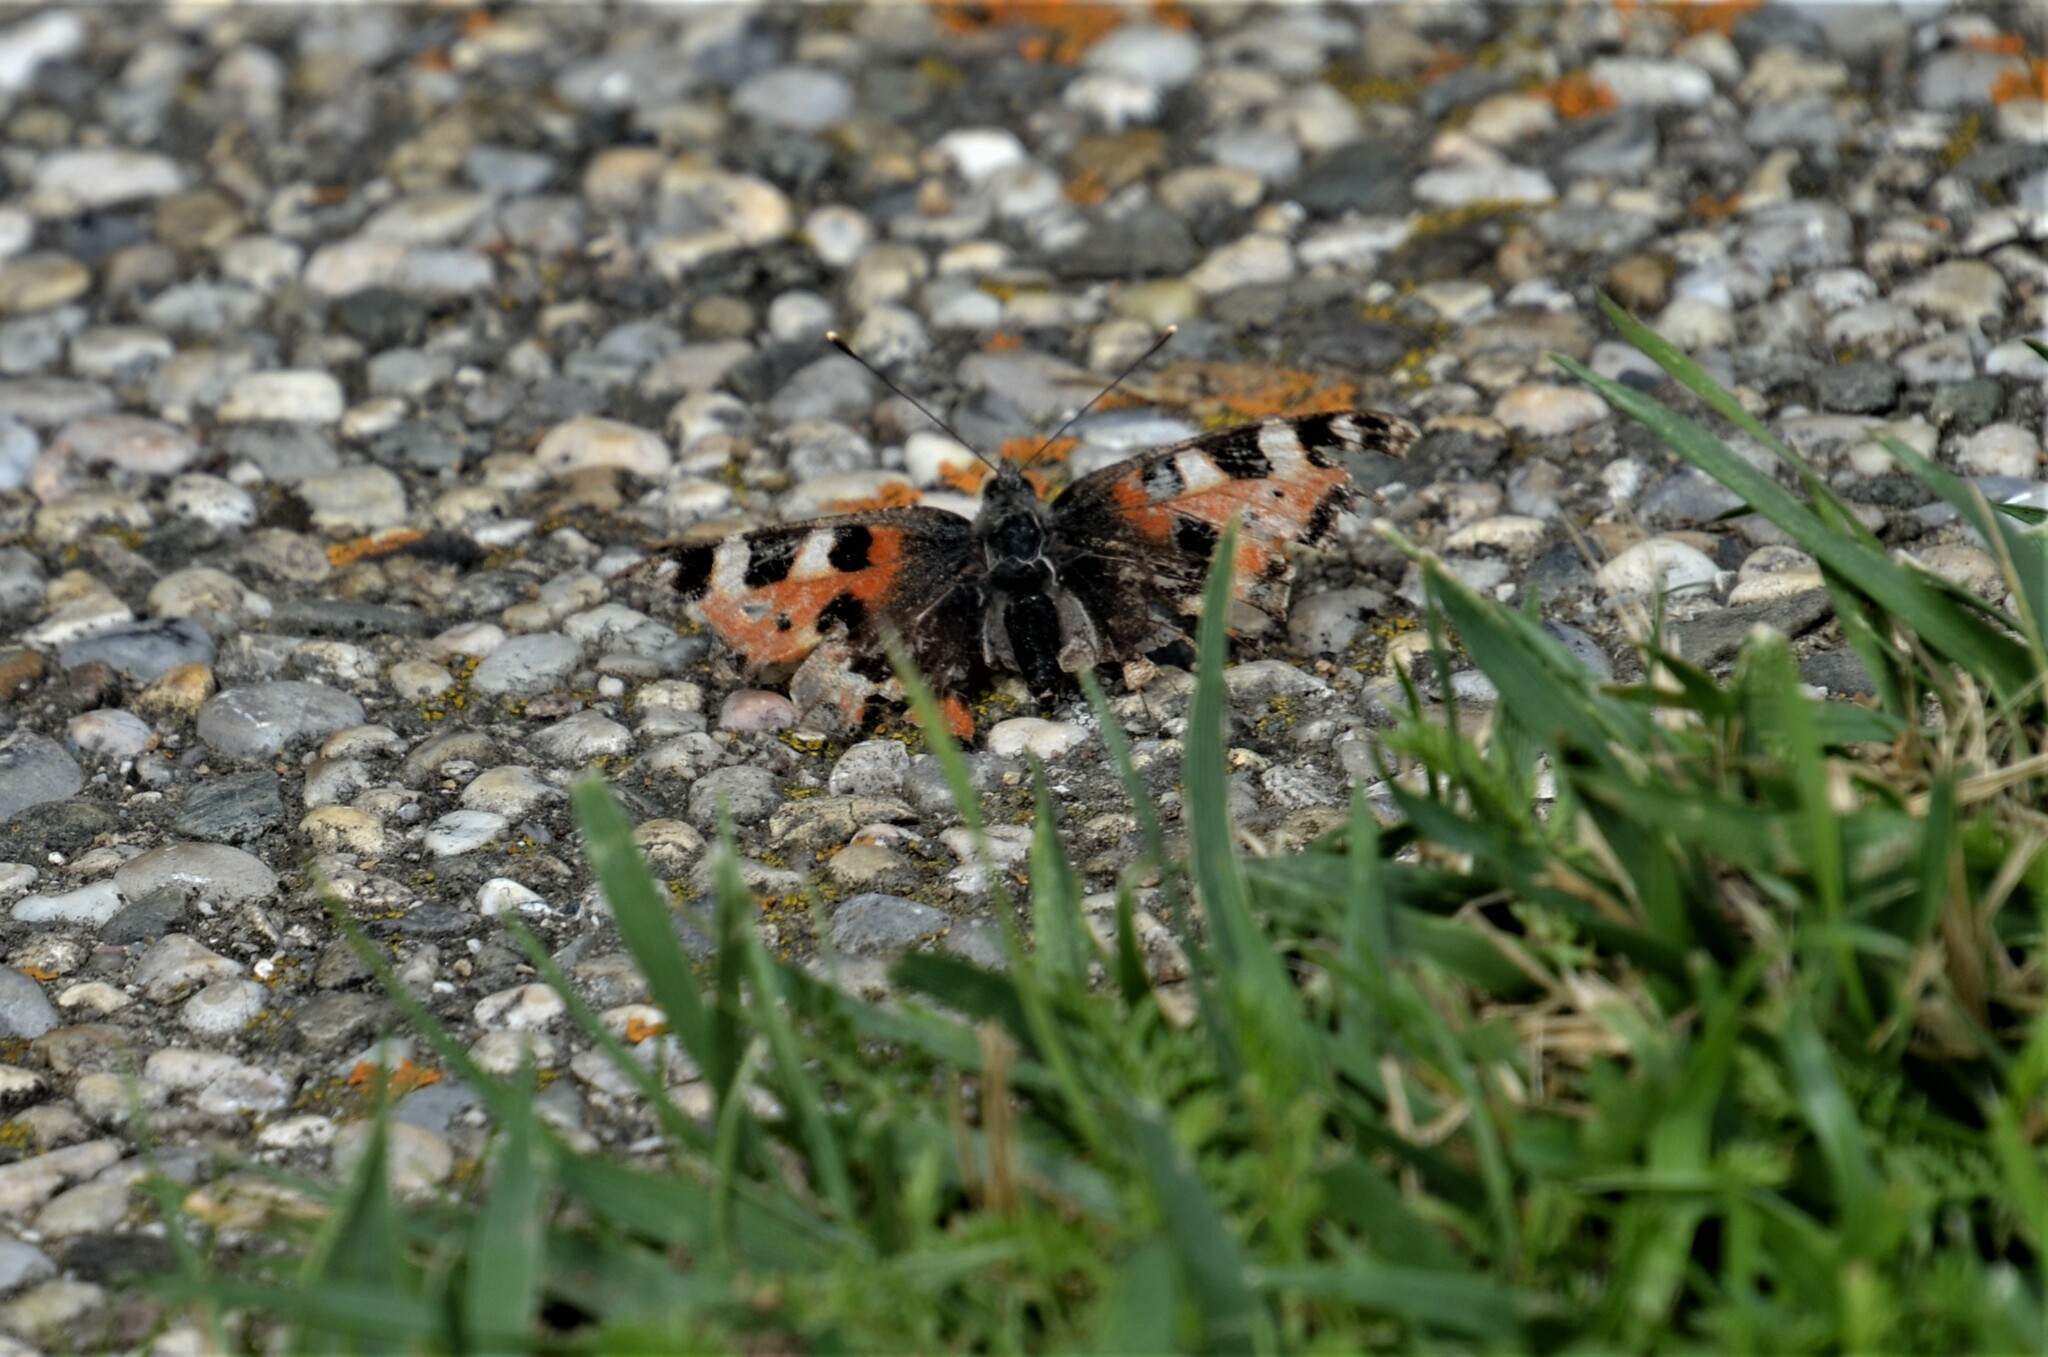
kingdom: Animalia
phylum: Arthropoda
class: Insecta
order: Lepidoptera
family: Nymphalidae
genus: Aglais
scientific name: Aglais urticae
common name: Small tortoiseshell
